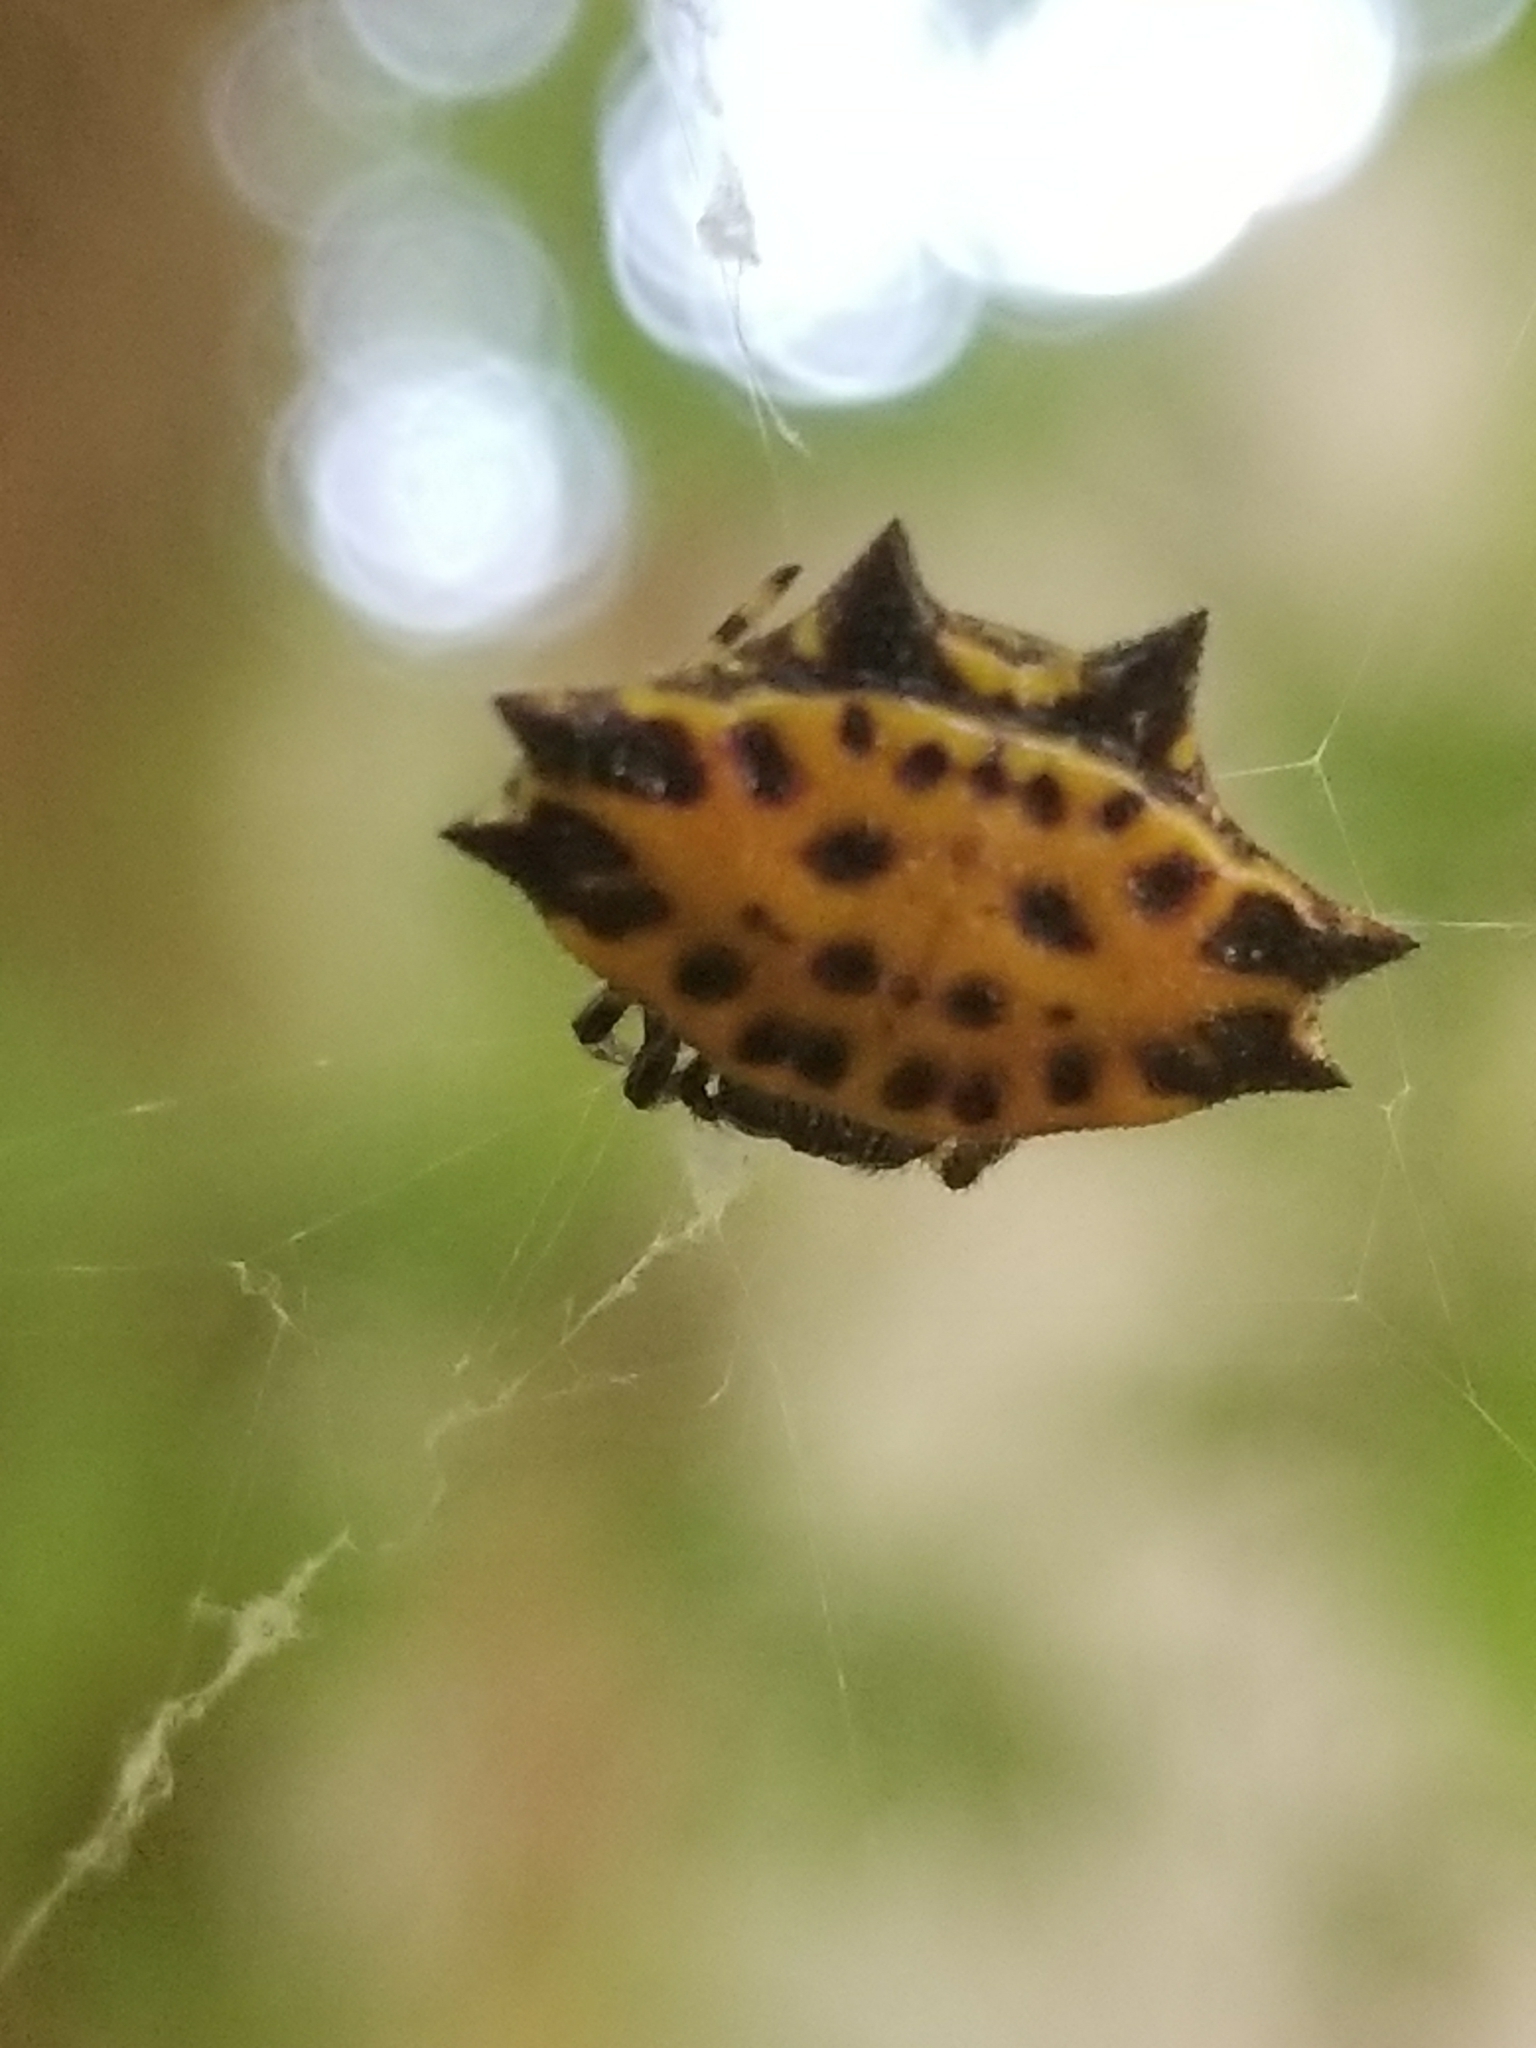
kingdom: Animalia
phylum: Arthropoda
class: Arachnida
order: Araneae
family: Araneidae
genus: Gasteracantha
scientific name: Gasteracantha cancriformis
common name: Orb weavers
